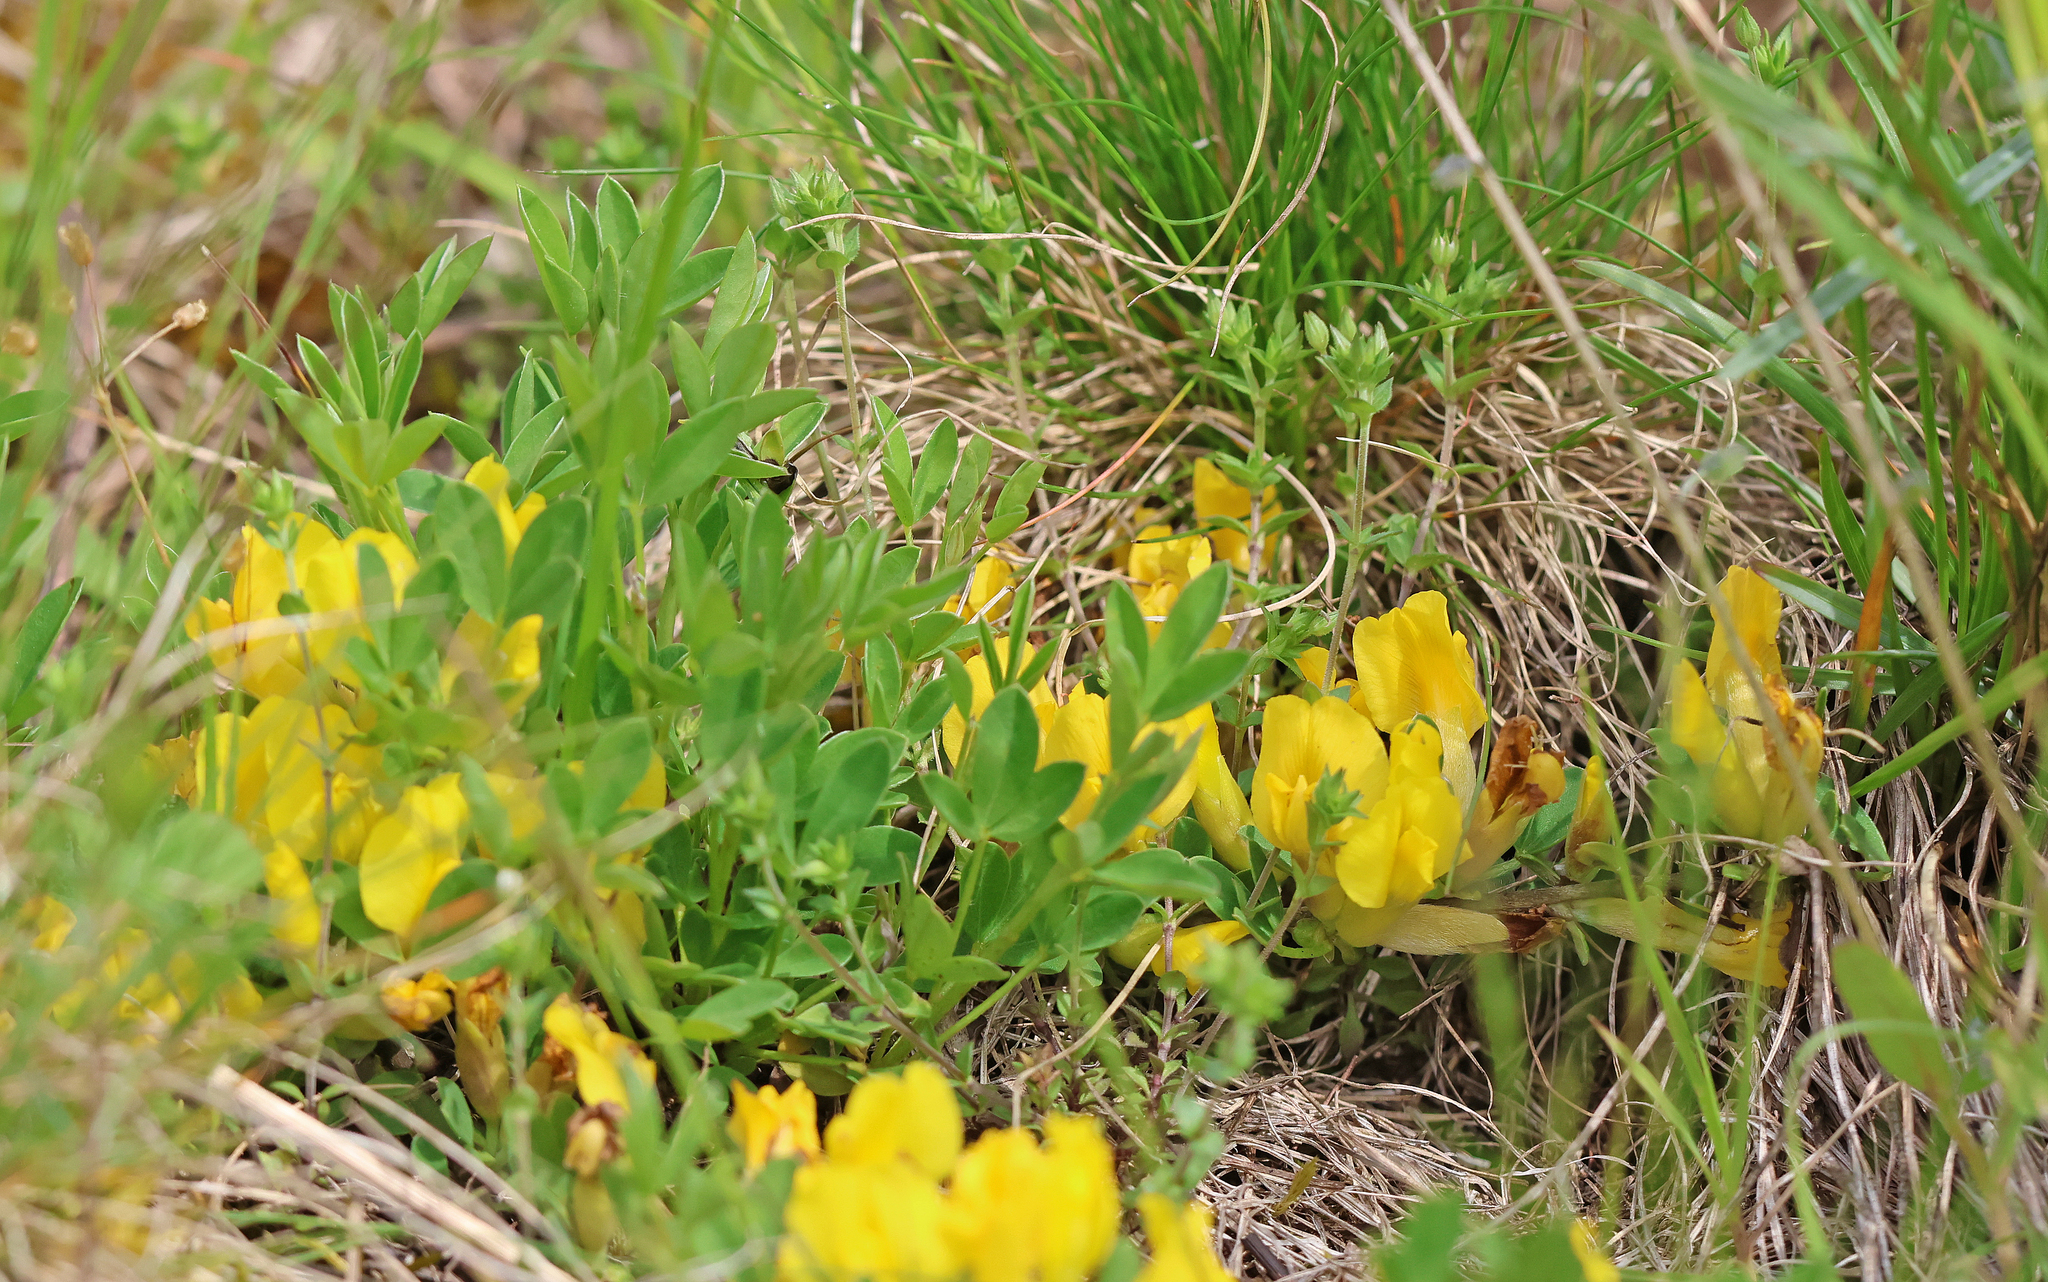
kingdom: Plantae
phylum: Tracheophyta
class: Magnoliopsida
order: Fabales
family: Fabaceae
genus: Chamaecytisus
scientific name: Chamaecytisus ratisbonensis
